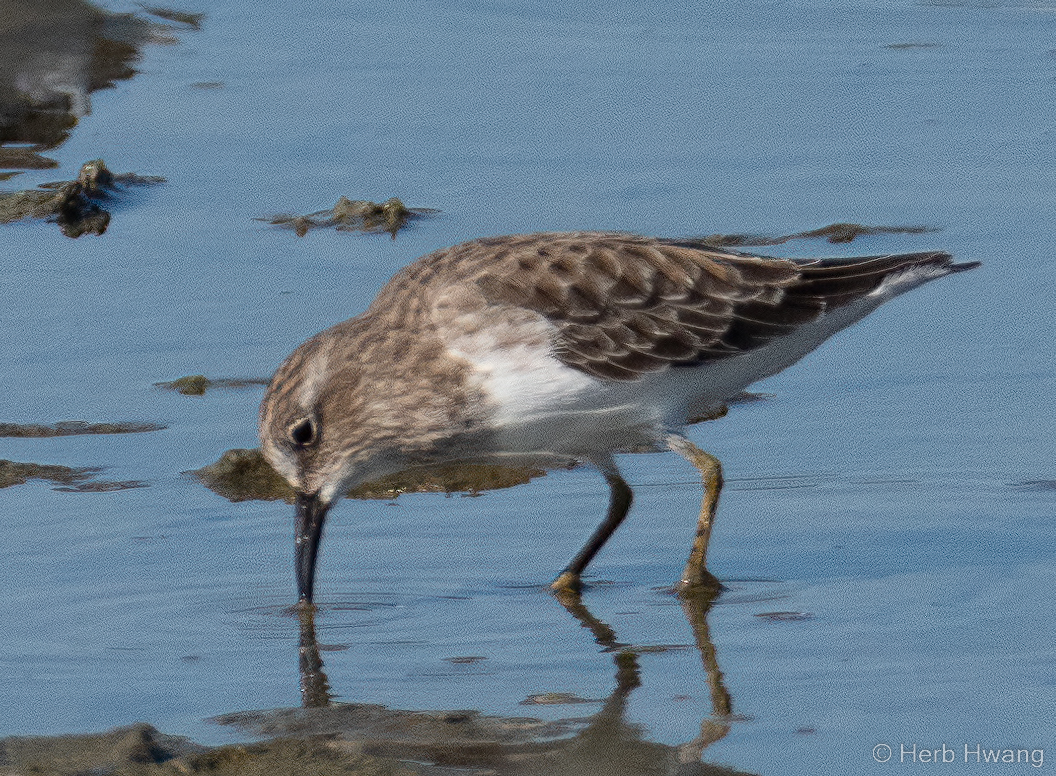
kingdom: Animalia
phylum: Chordata
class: Aves
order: Charadriiformes
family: Scolopacidae
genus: Calidris
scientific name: Calidris minutilla
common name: Least sandpiper
